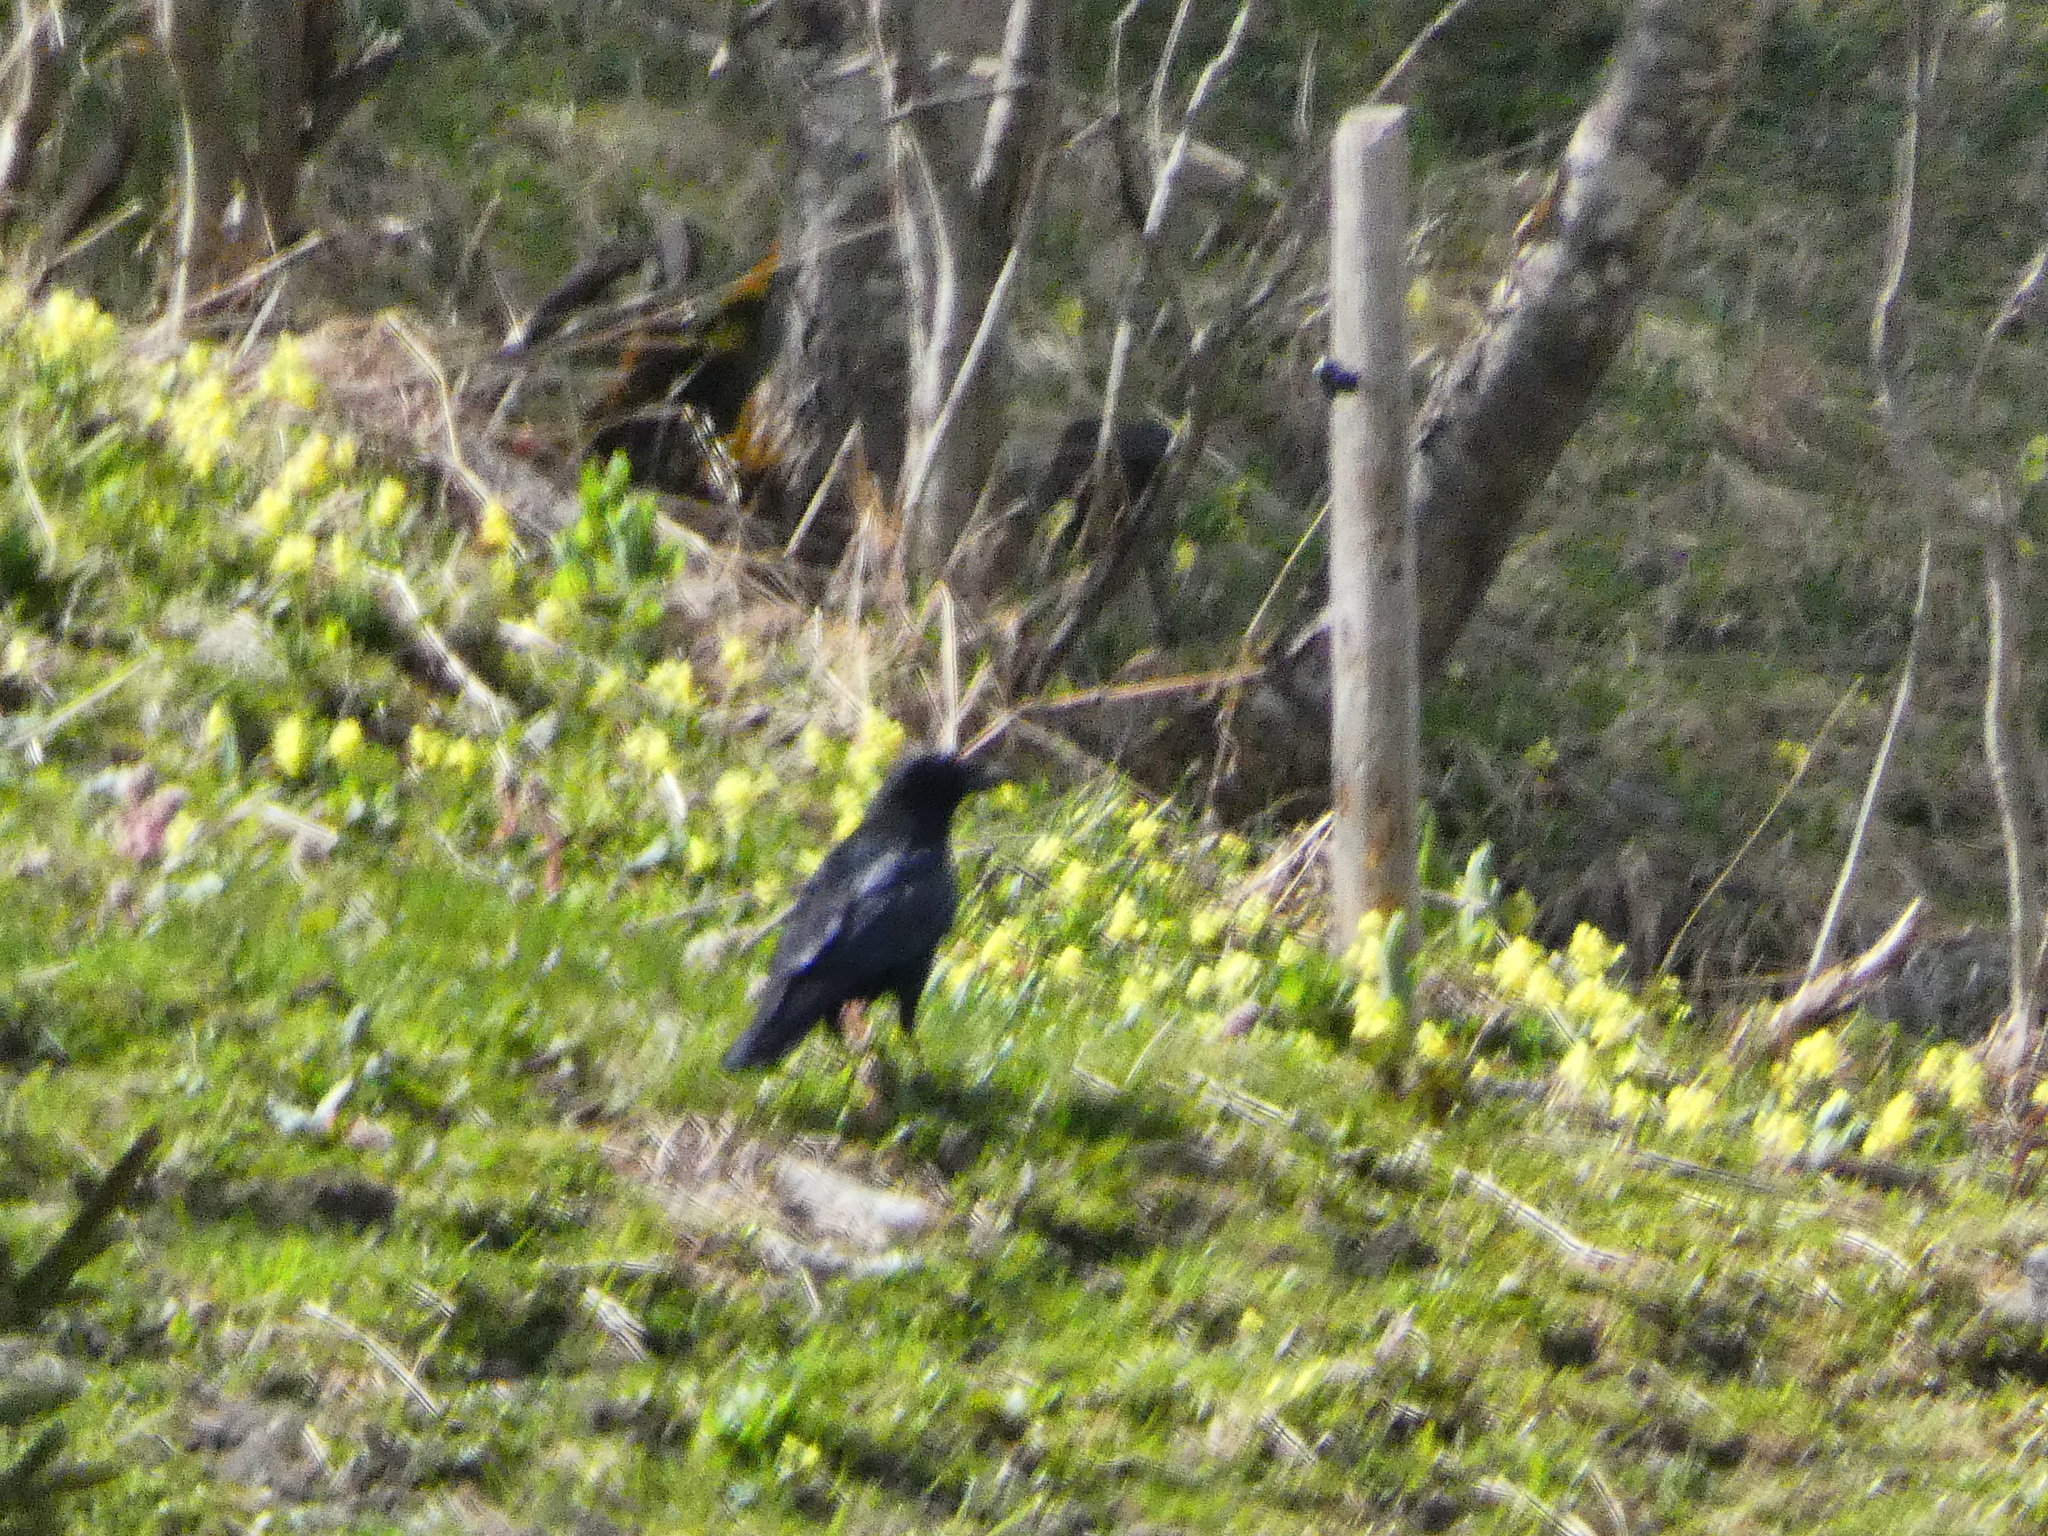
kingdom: Animalia
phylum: Chordata
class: Aves
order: Passeriformes
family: Corvidae
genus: Corvus
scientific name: Corvus
